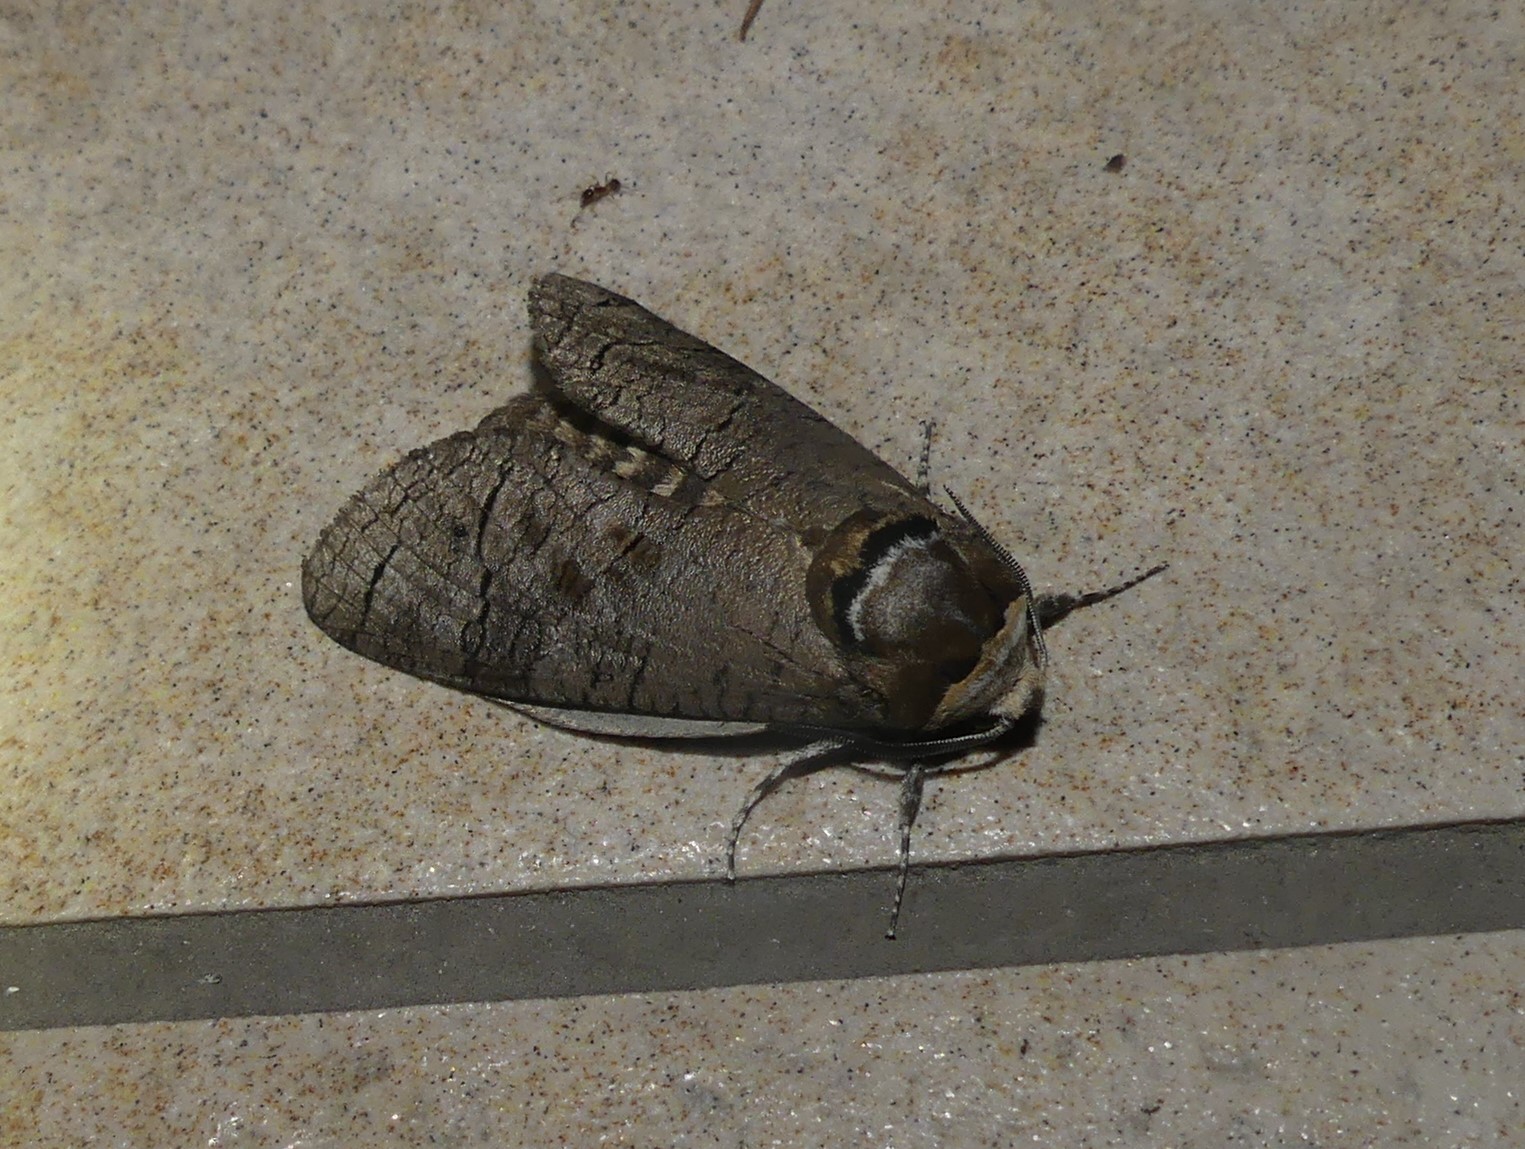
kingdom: Animalia
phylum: Arthropoda
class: Insecta
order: Lepidoptera
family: Cossidae
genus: Cossus
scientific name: Cossus cossus
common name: Goat moth
